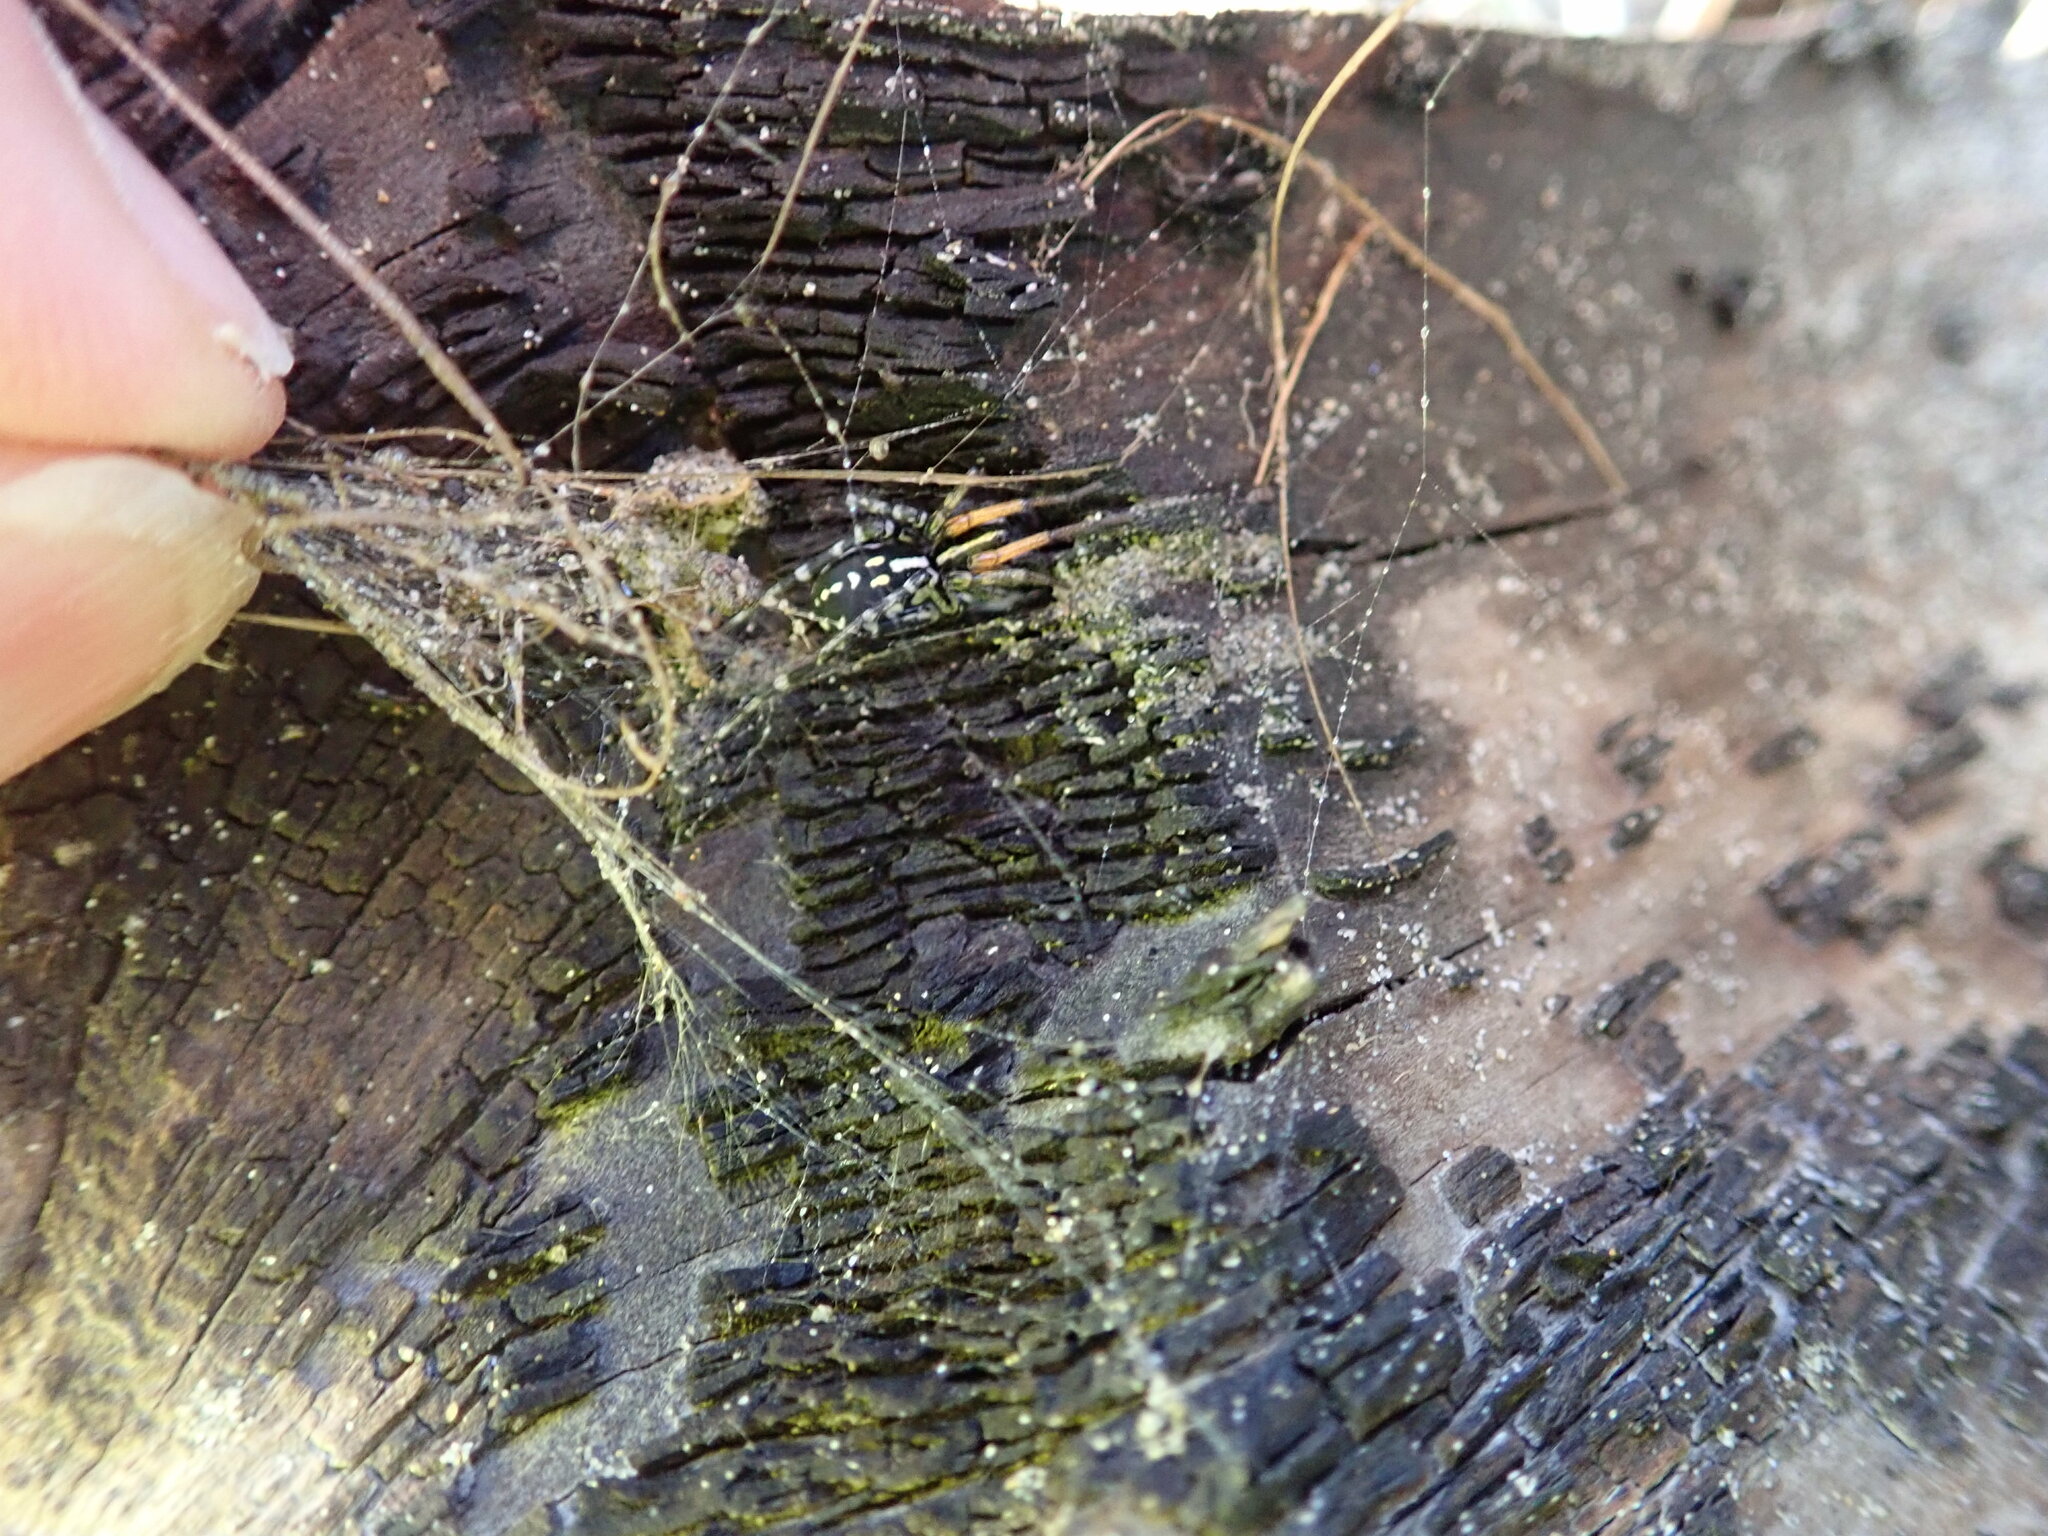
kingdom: Animalia
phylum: Arthropoda
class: Arachnida
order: Araneae
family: Corinnidae
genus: Nyssus
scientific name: Nyssus coloripes
